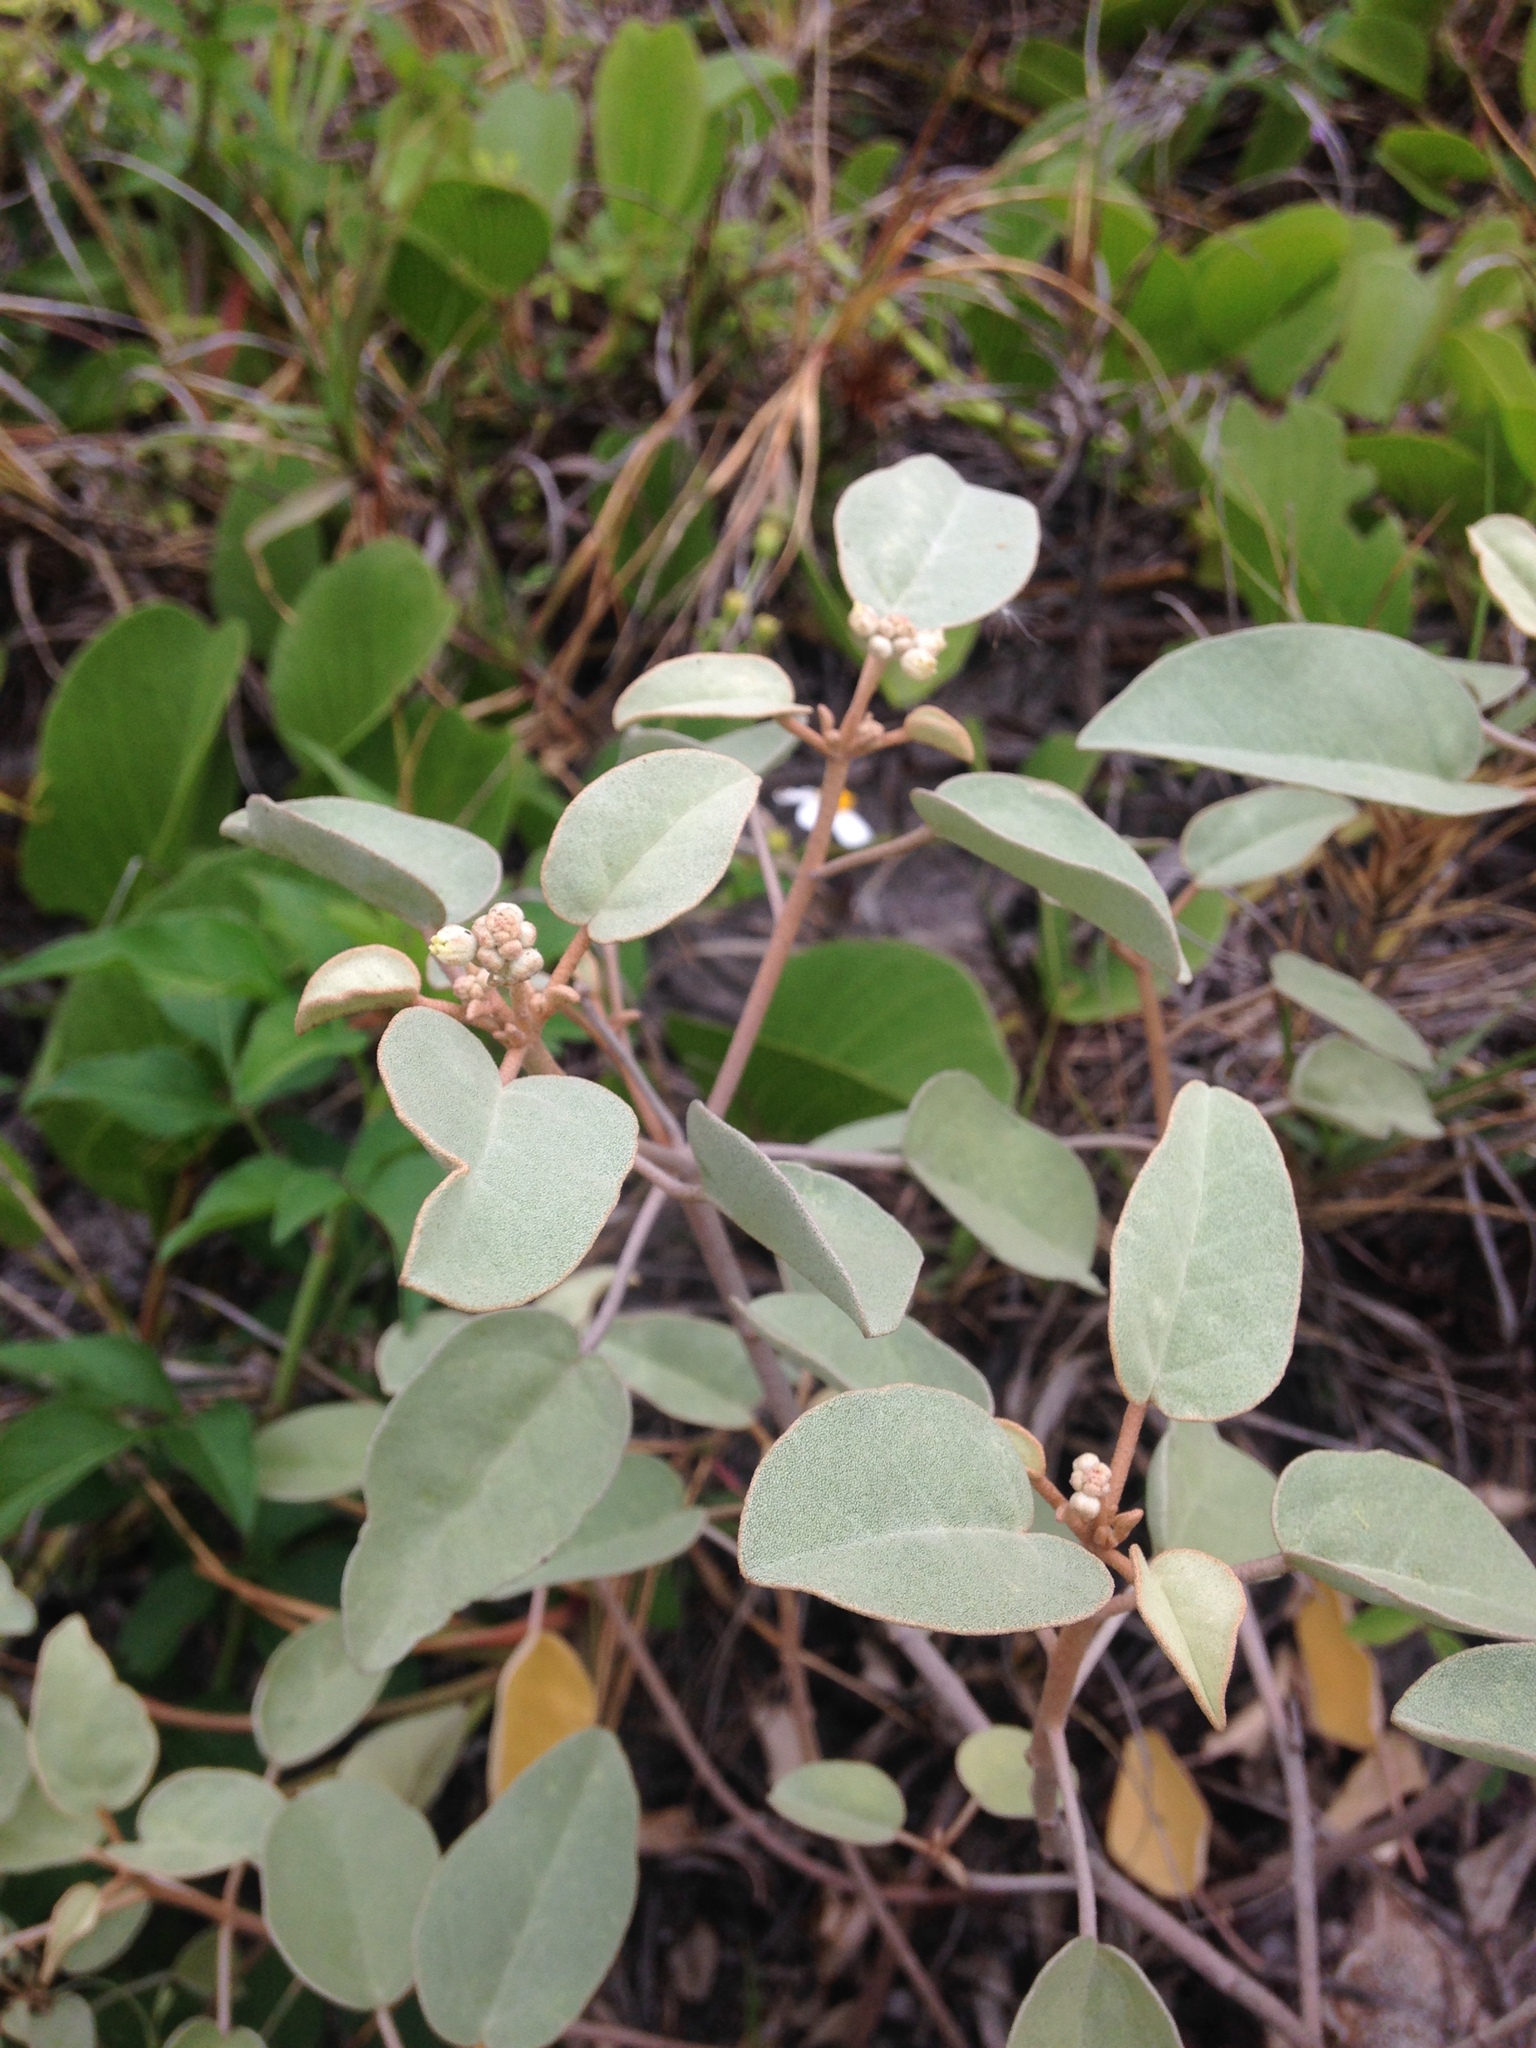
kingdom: Plantae
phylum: Tracheophyta
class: Magnoliopsida
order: Malpighiales
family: Euphorbiaceae
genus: Croton
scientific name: Croton punctatus
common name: Beach-tea
